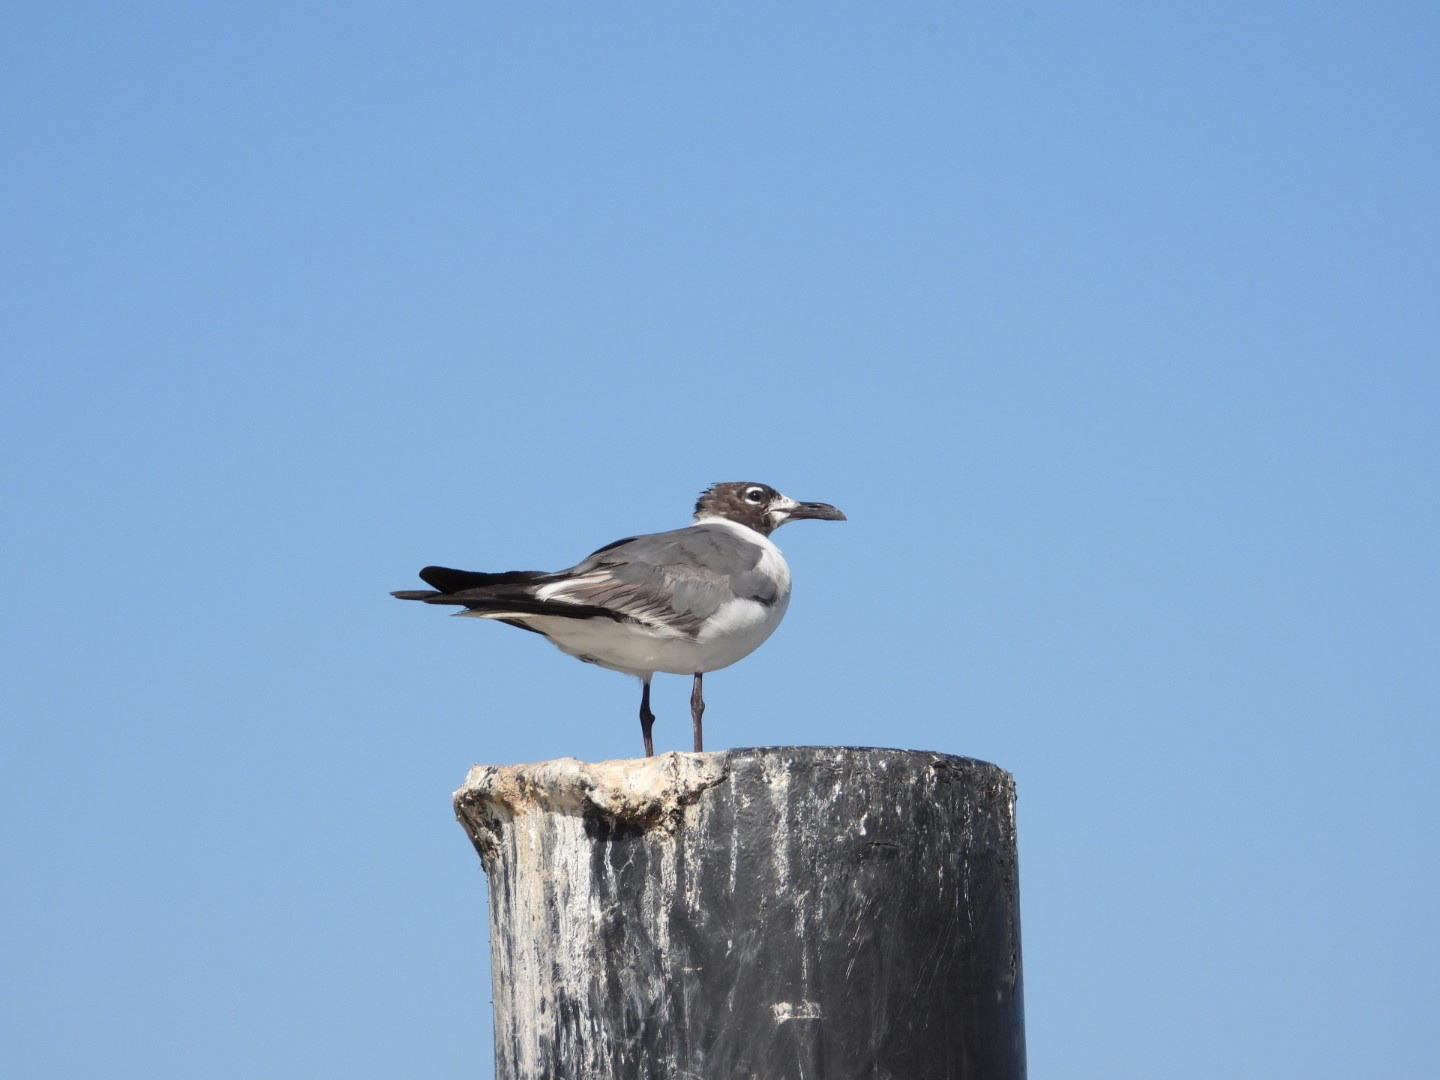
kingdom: Animalia
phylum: Chordata
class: Aves
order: Charadriiformes
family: Laridae
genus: Leucophaeus
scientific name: Leucophaeus atricilla
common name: Laughing gull
